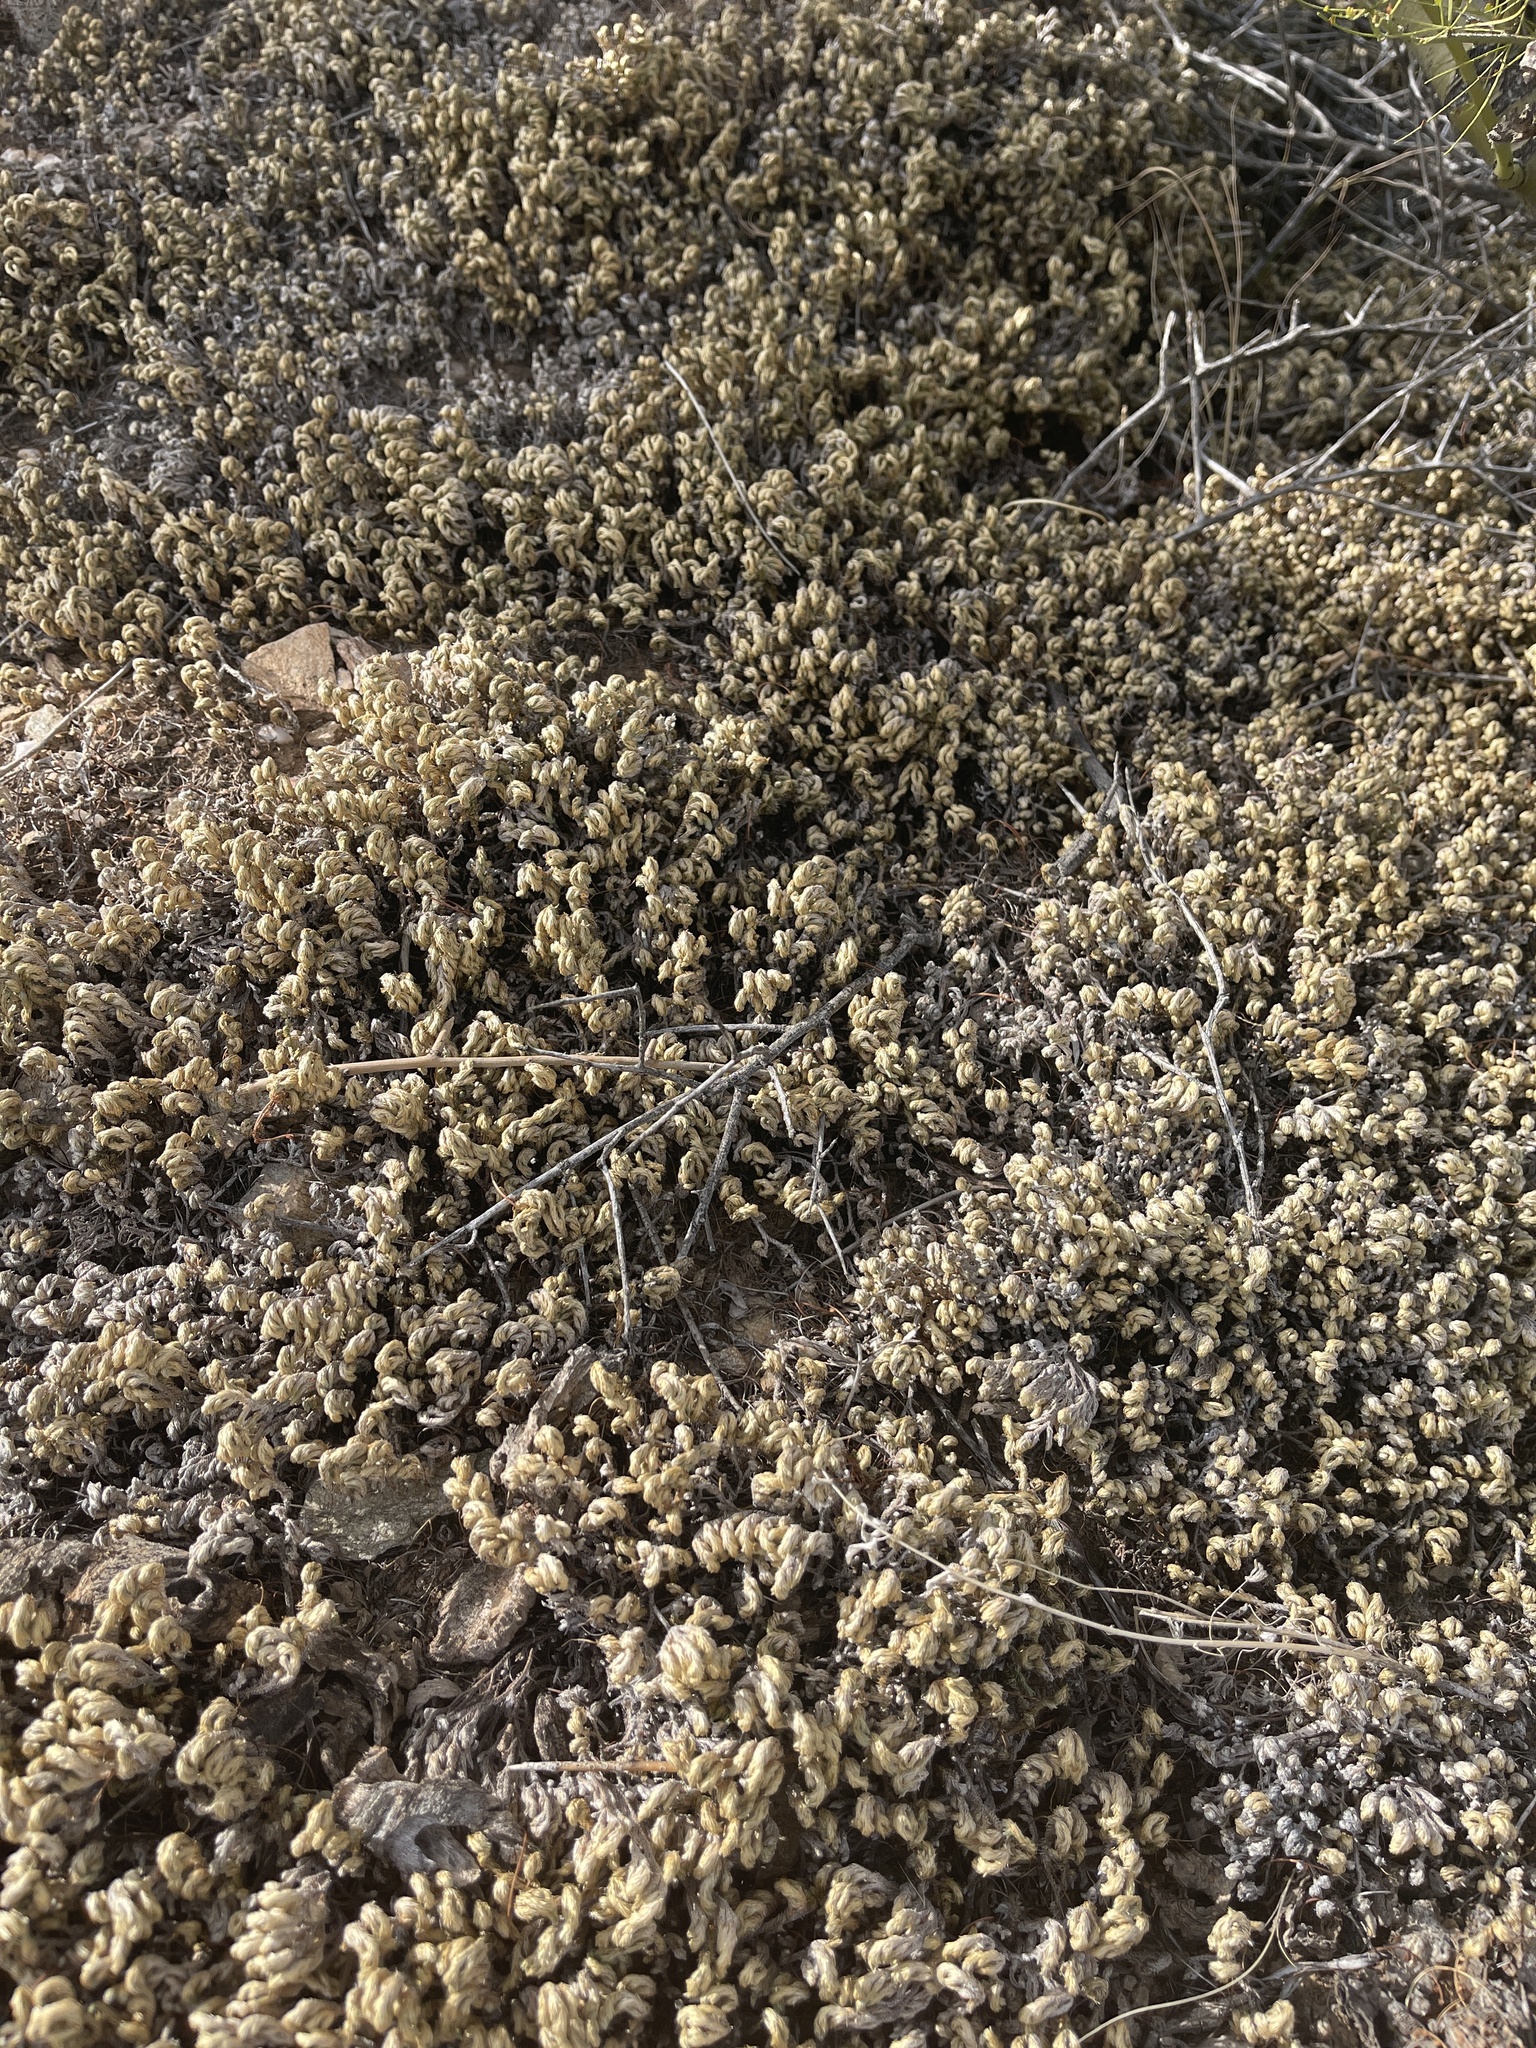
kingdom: Plantae
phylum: Tracheophyta
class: Lycopodiopsida
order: Selaginellales
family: Selaginellaceae
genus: Selaginella
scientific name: Selaginella arizonica
